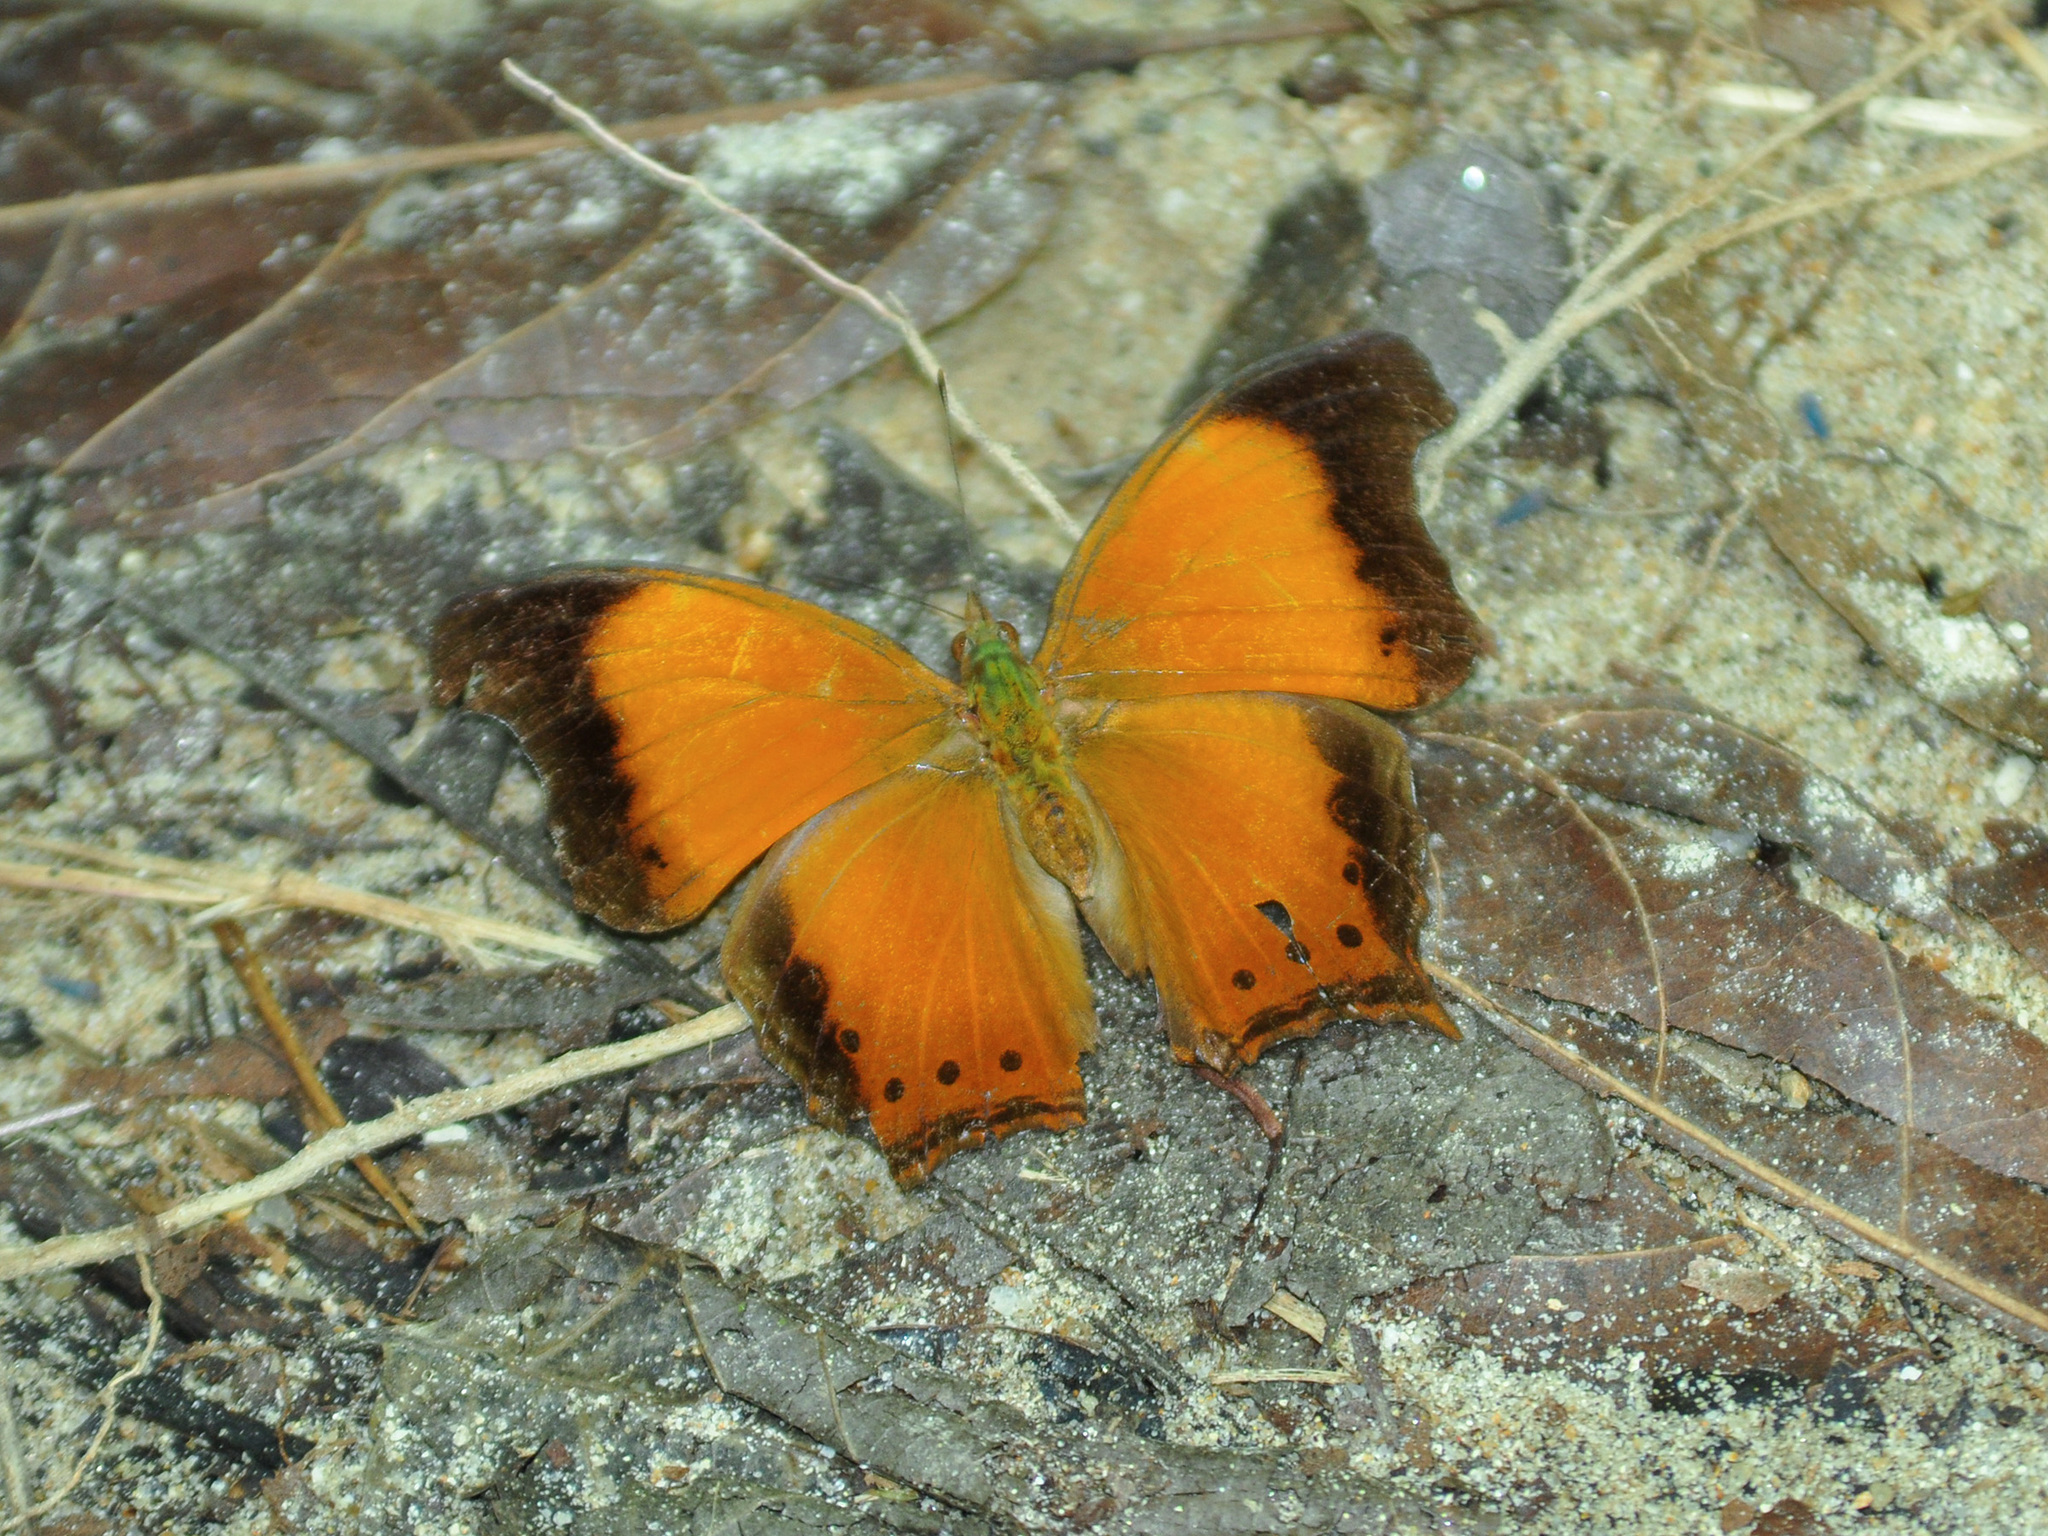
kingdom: Animalia
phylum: Arthropoda
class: Insecta
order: Lepidoptera
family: Nymphalidae
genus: Rhinopalpa
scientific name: Rhinopalpa polynice
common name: Wizard
